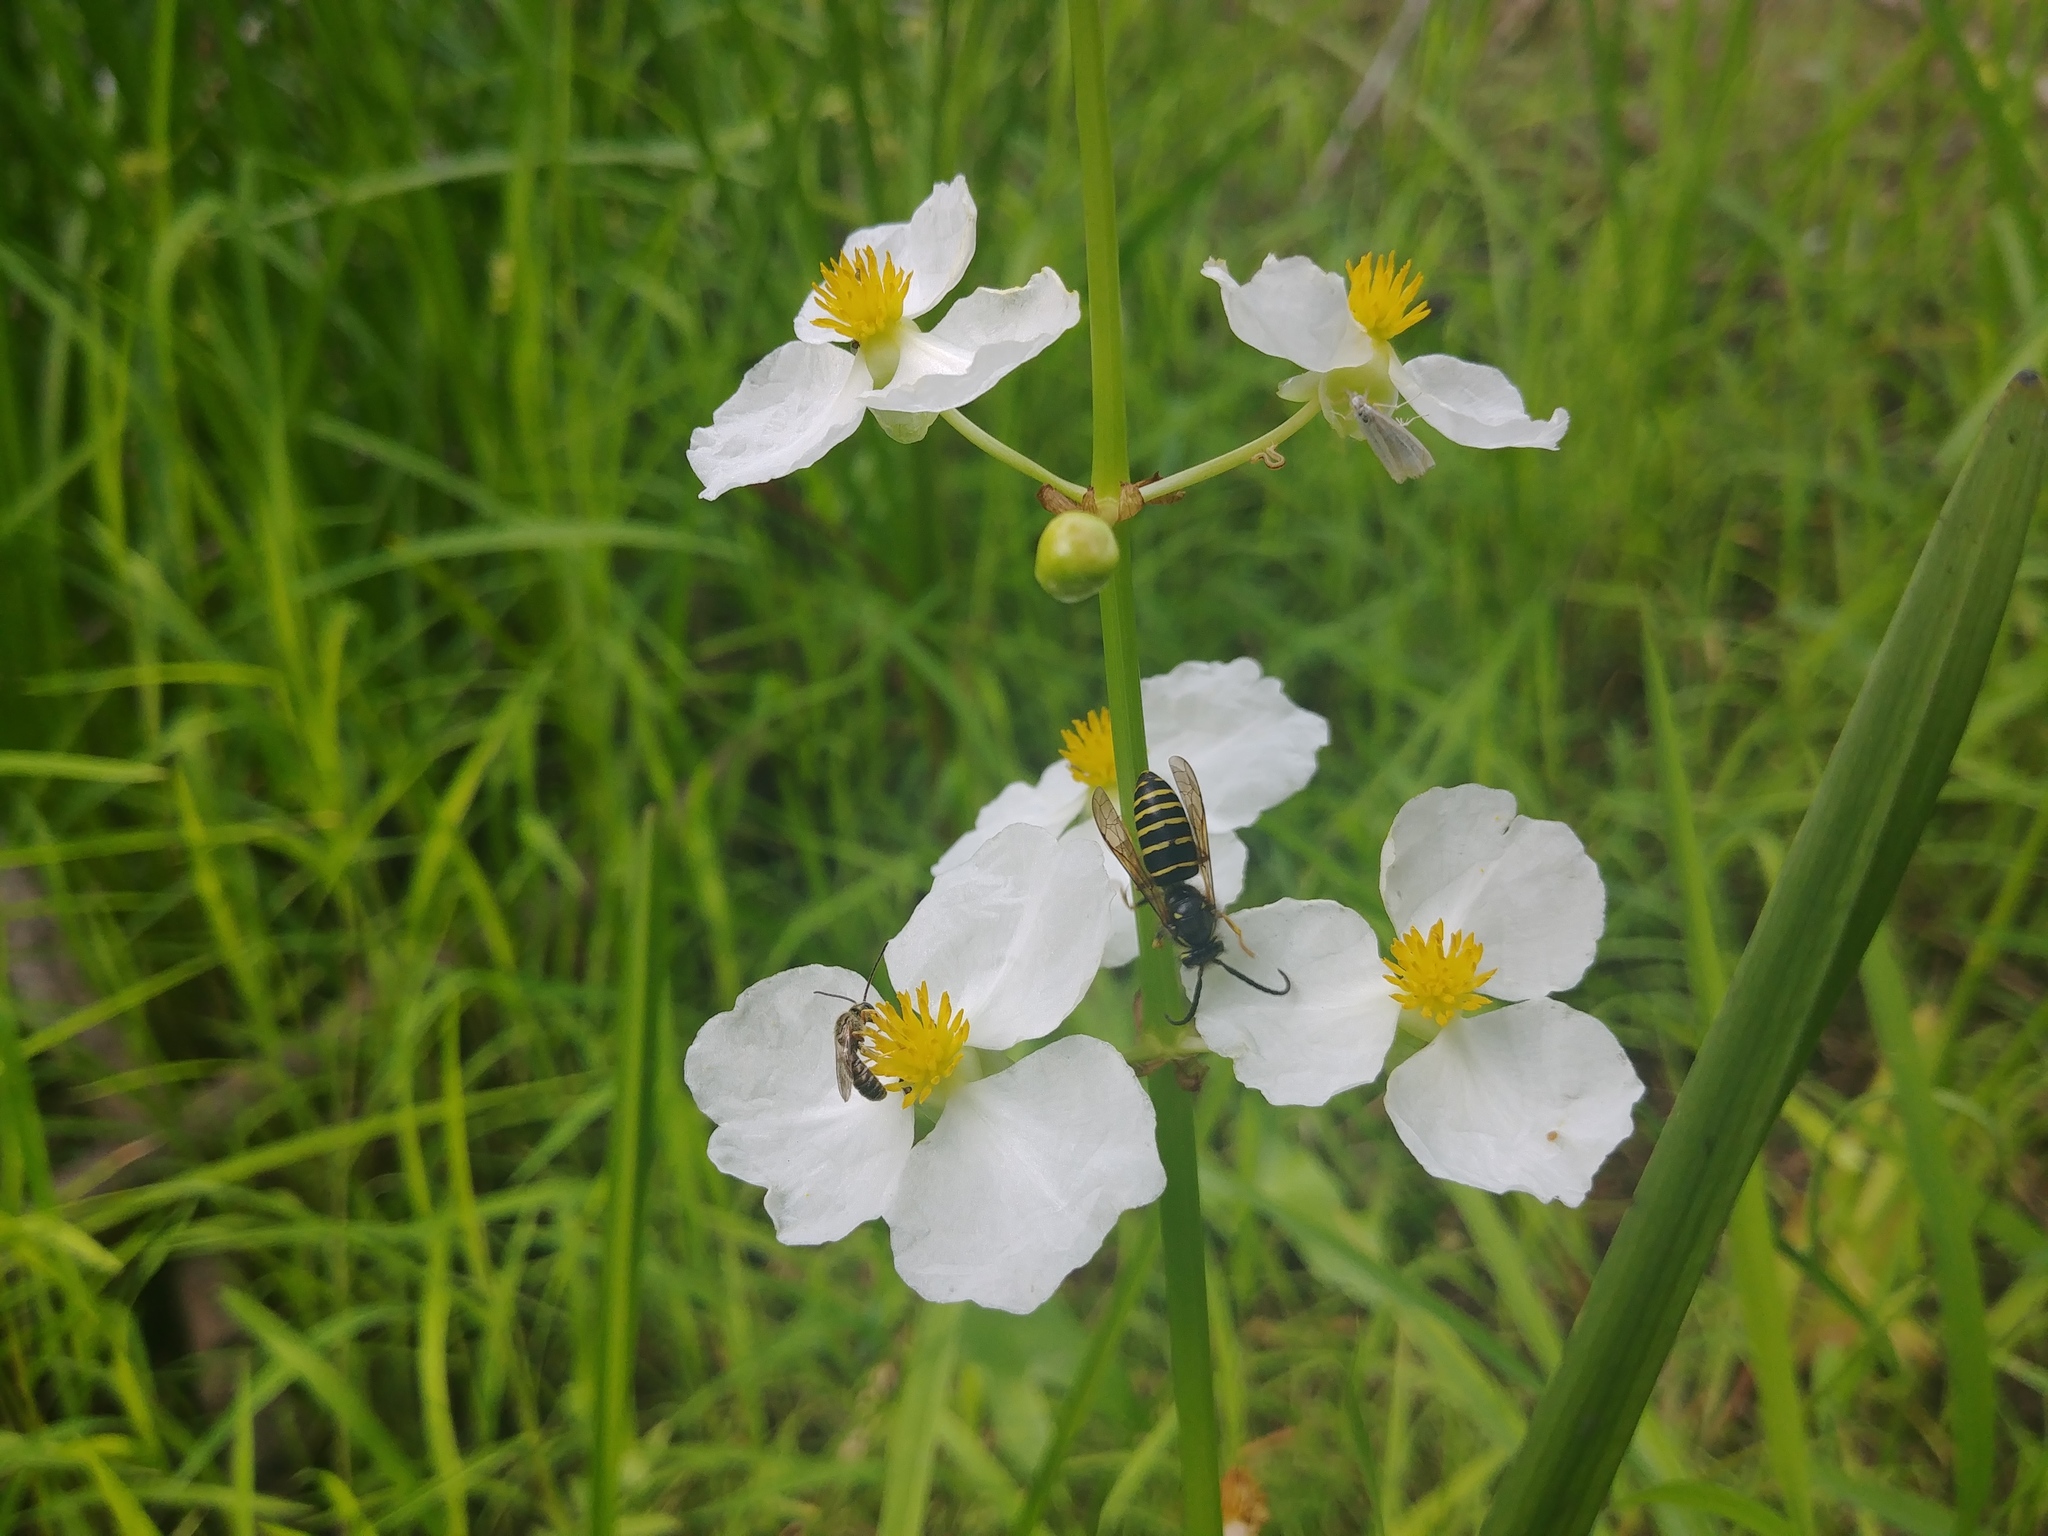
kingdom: Animalia
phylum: Arthropoda
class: Insecta
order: Hymenoptera
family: Vespidae
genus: Dolichovespula
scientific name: Dolichovespula norvegicoides
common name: Northern aerial yellowjacket
